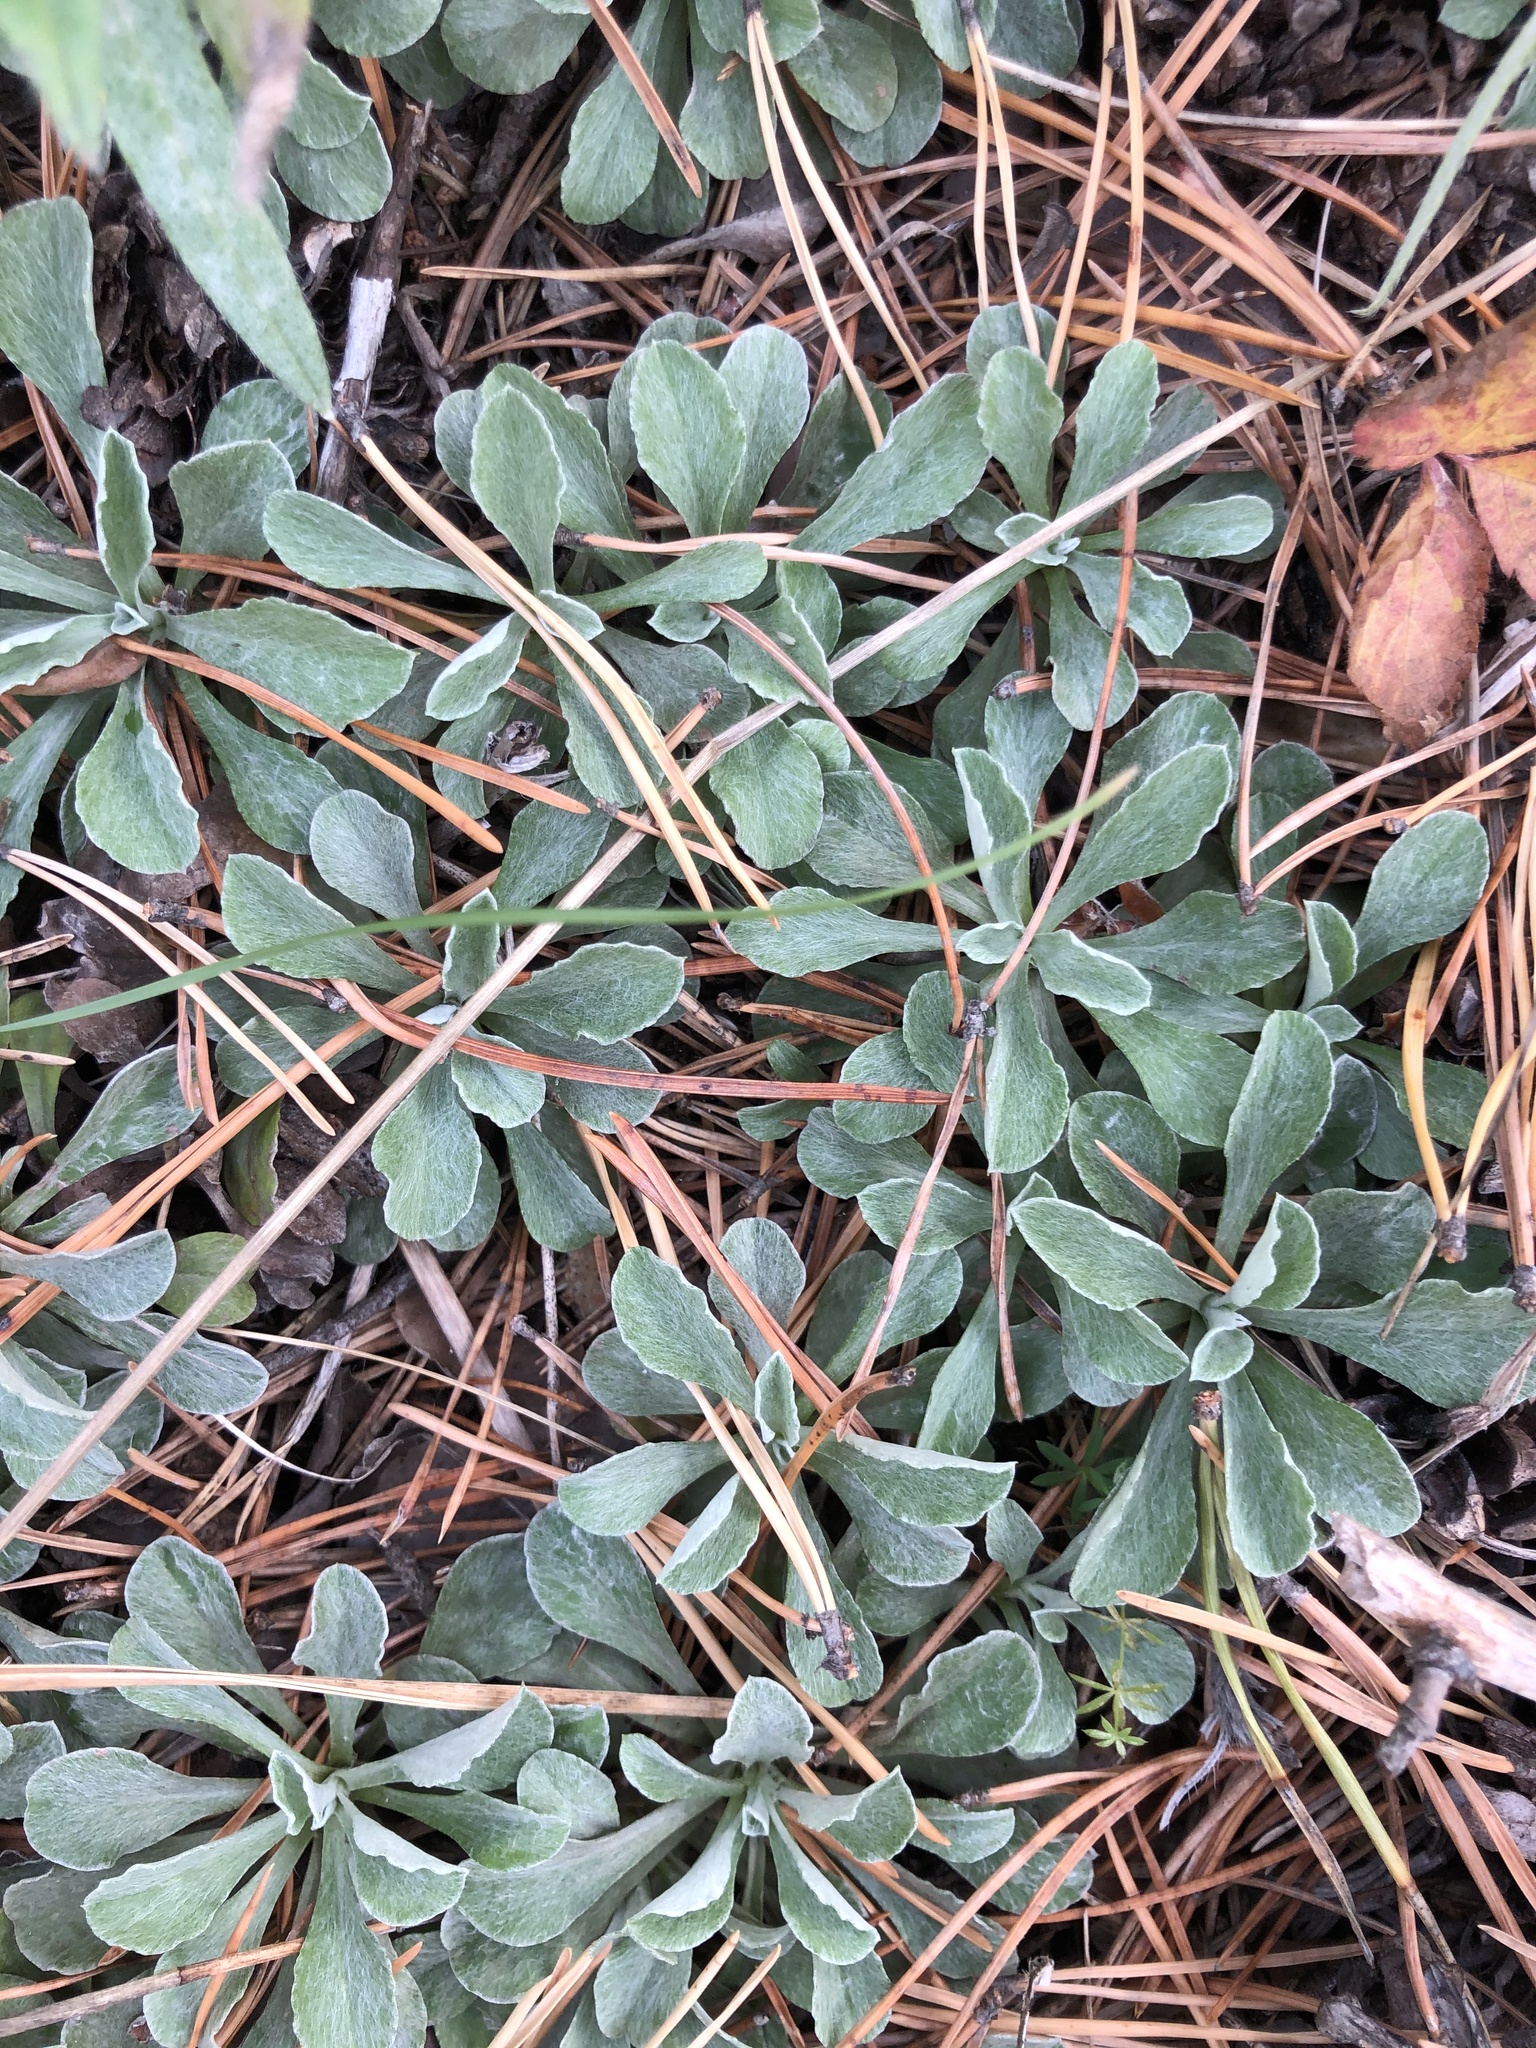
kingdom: Plantae
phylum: Tracheophyta
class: Magnoliopsida
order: Asterales
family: Asteraceae
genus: Antennaria
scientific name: Antennaria dioica
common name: Mountain everlasting
